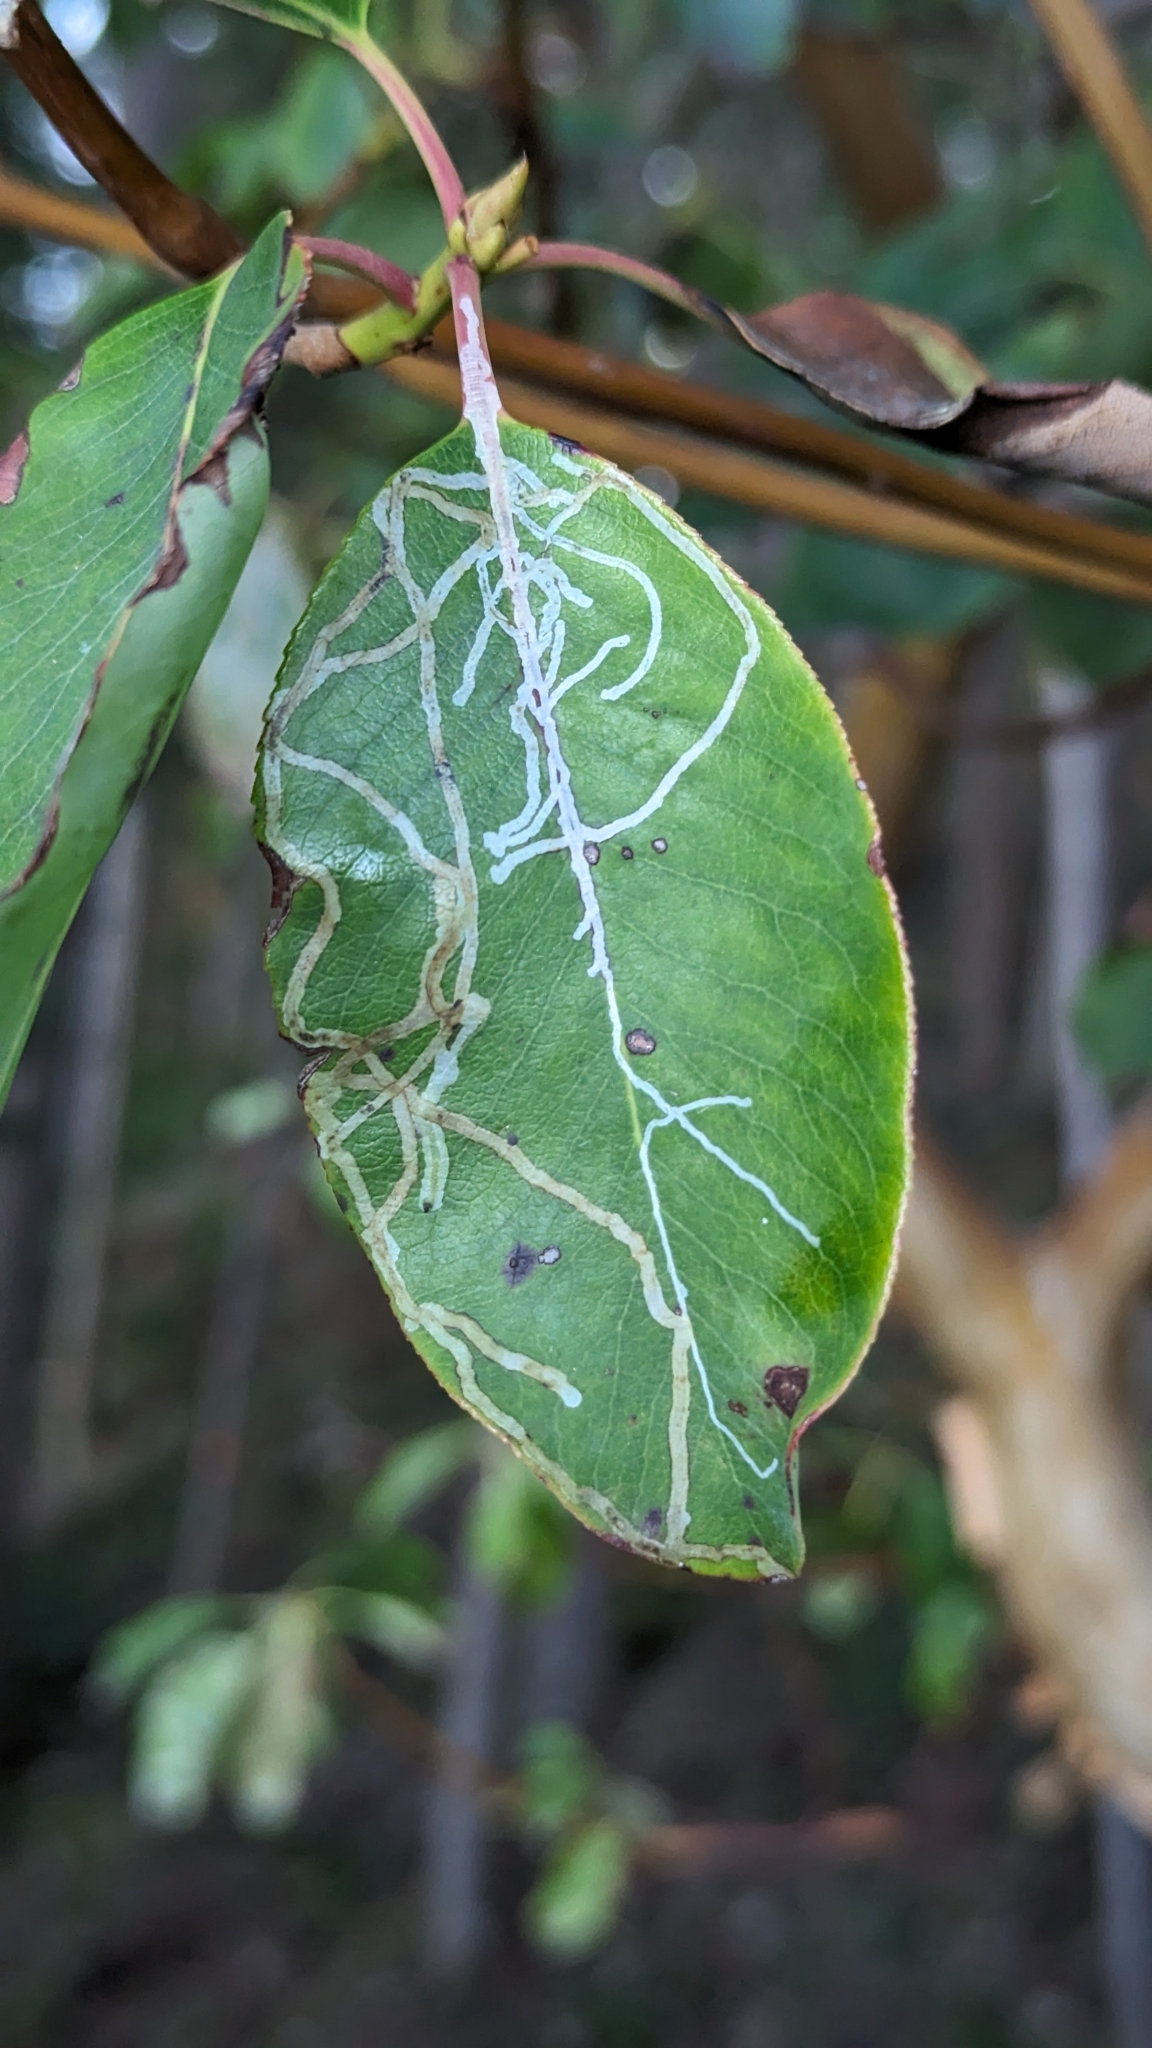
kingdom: Animalia
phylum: Arthropoda
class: Insecta
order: Lepidoptera
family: Gracillariidae
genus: Marmara
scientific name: Marmara arbutiella
